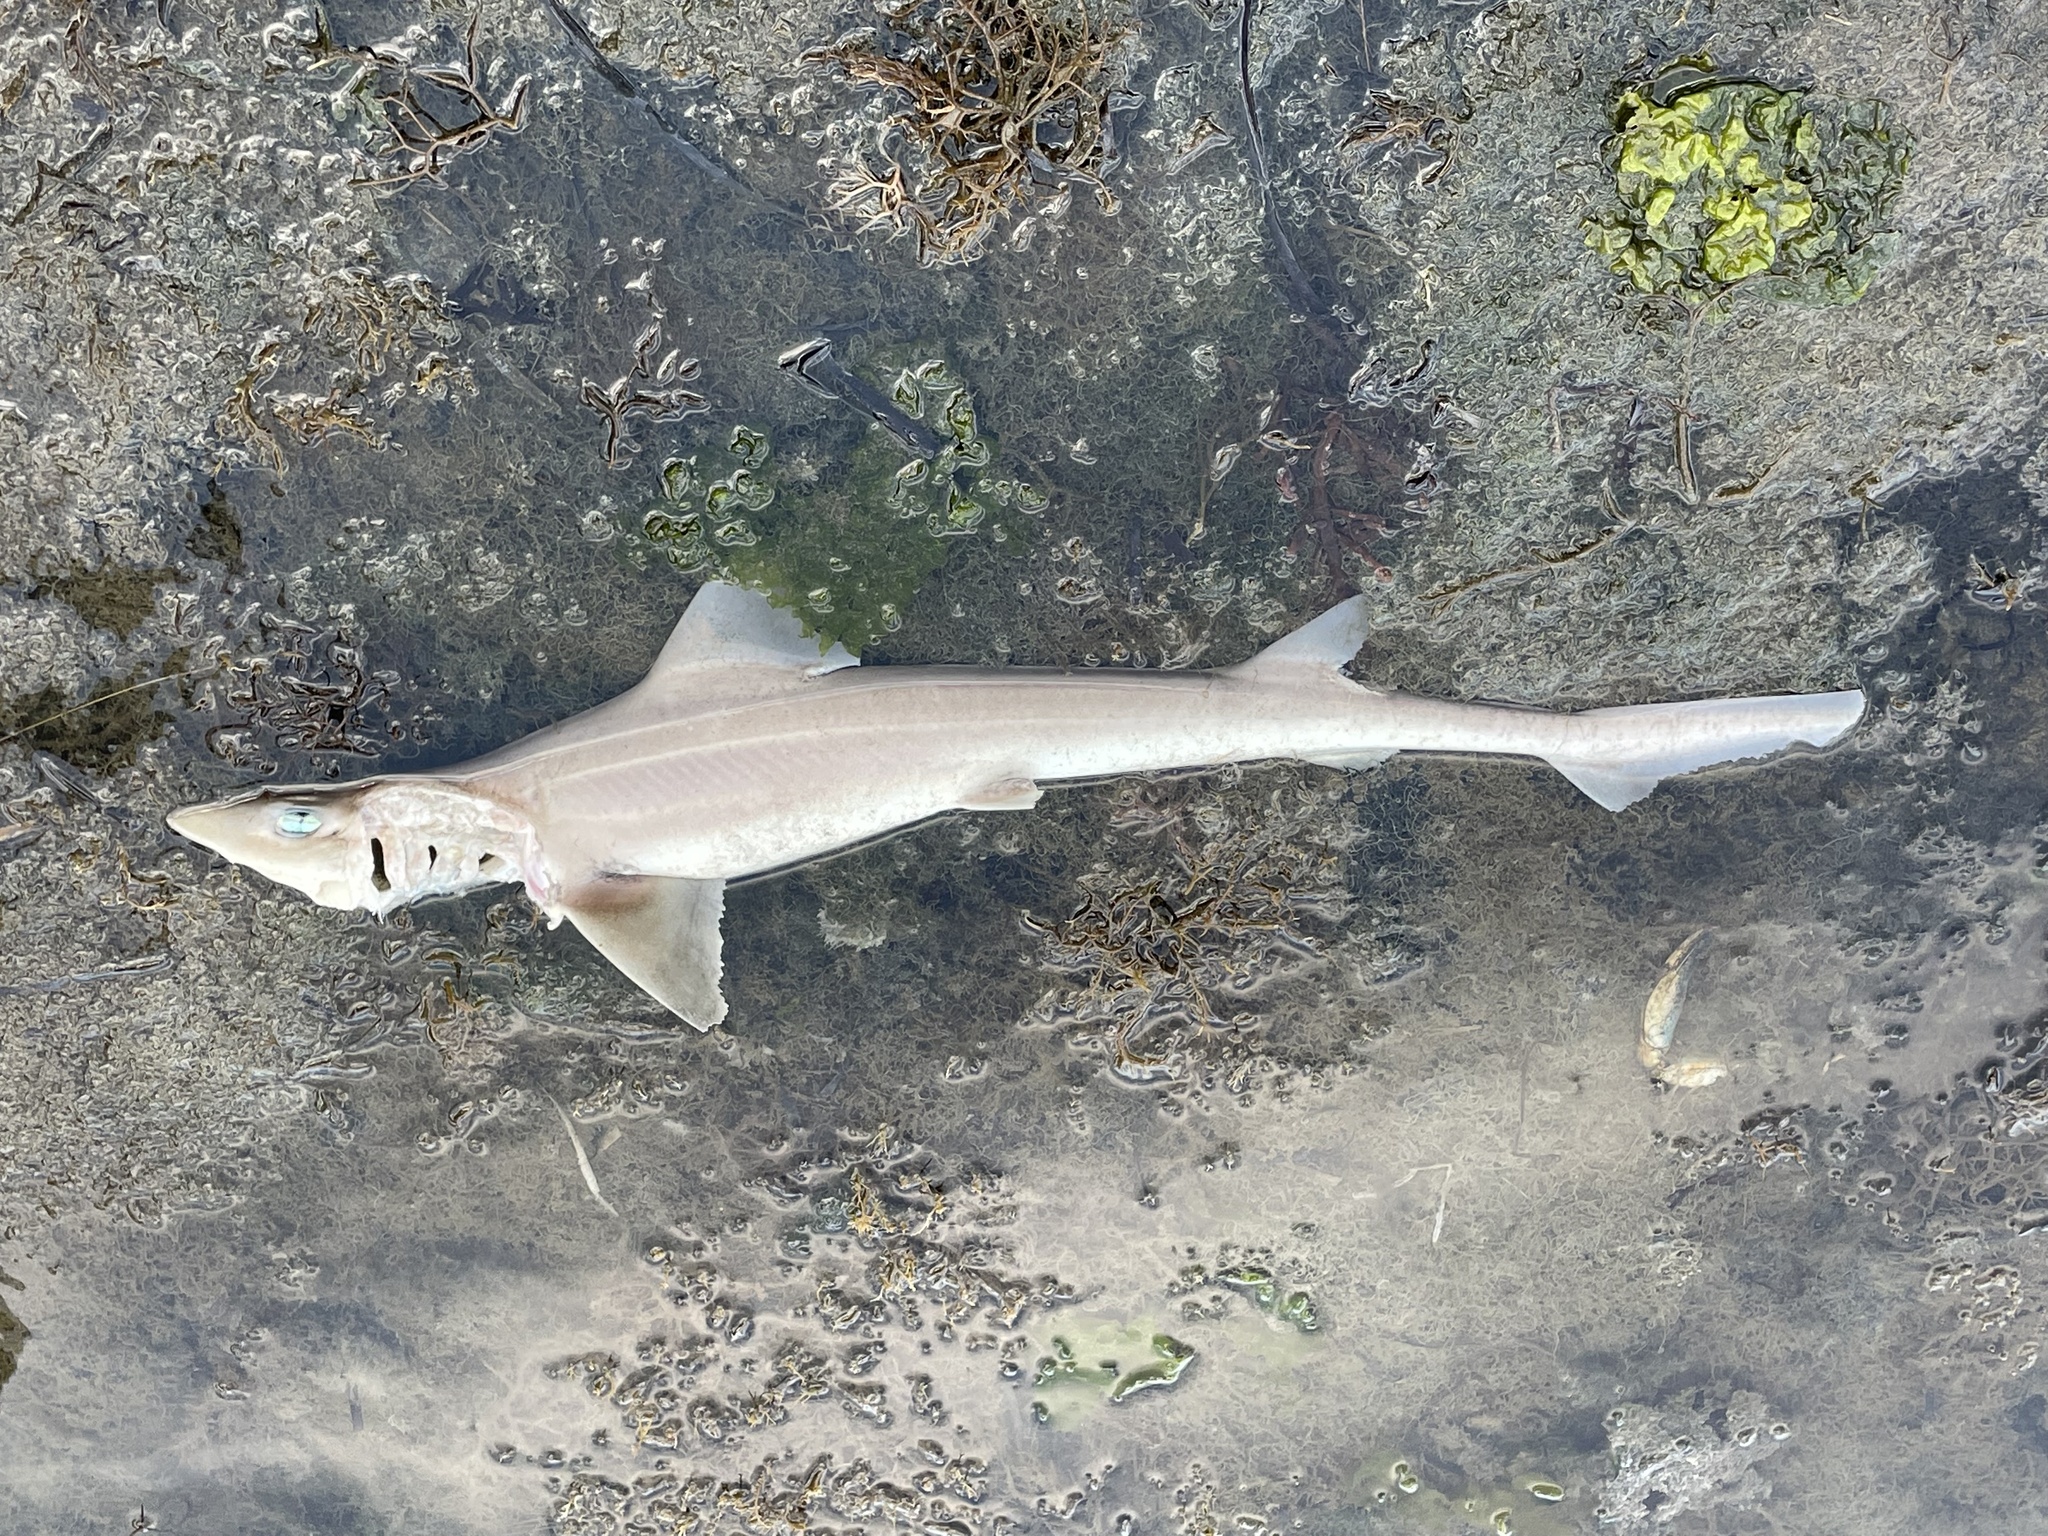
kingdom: Animalia
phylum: Chordata
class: Elasmobranchii
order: Carcharhiniformes
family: Triakidae
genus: Mustelus
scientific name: Mustelus canis
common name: Smooth dogfish
